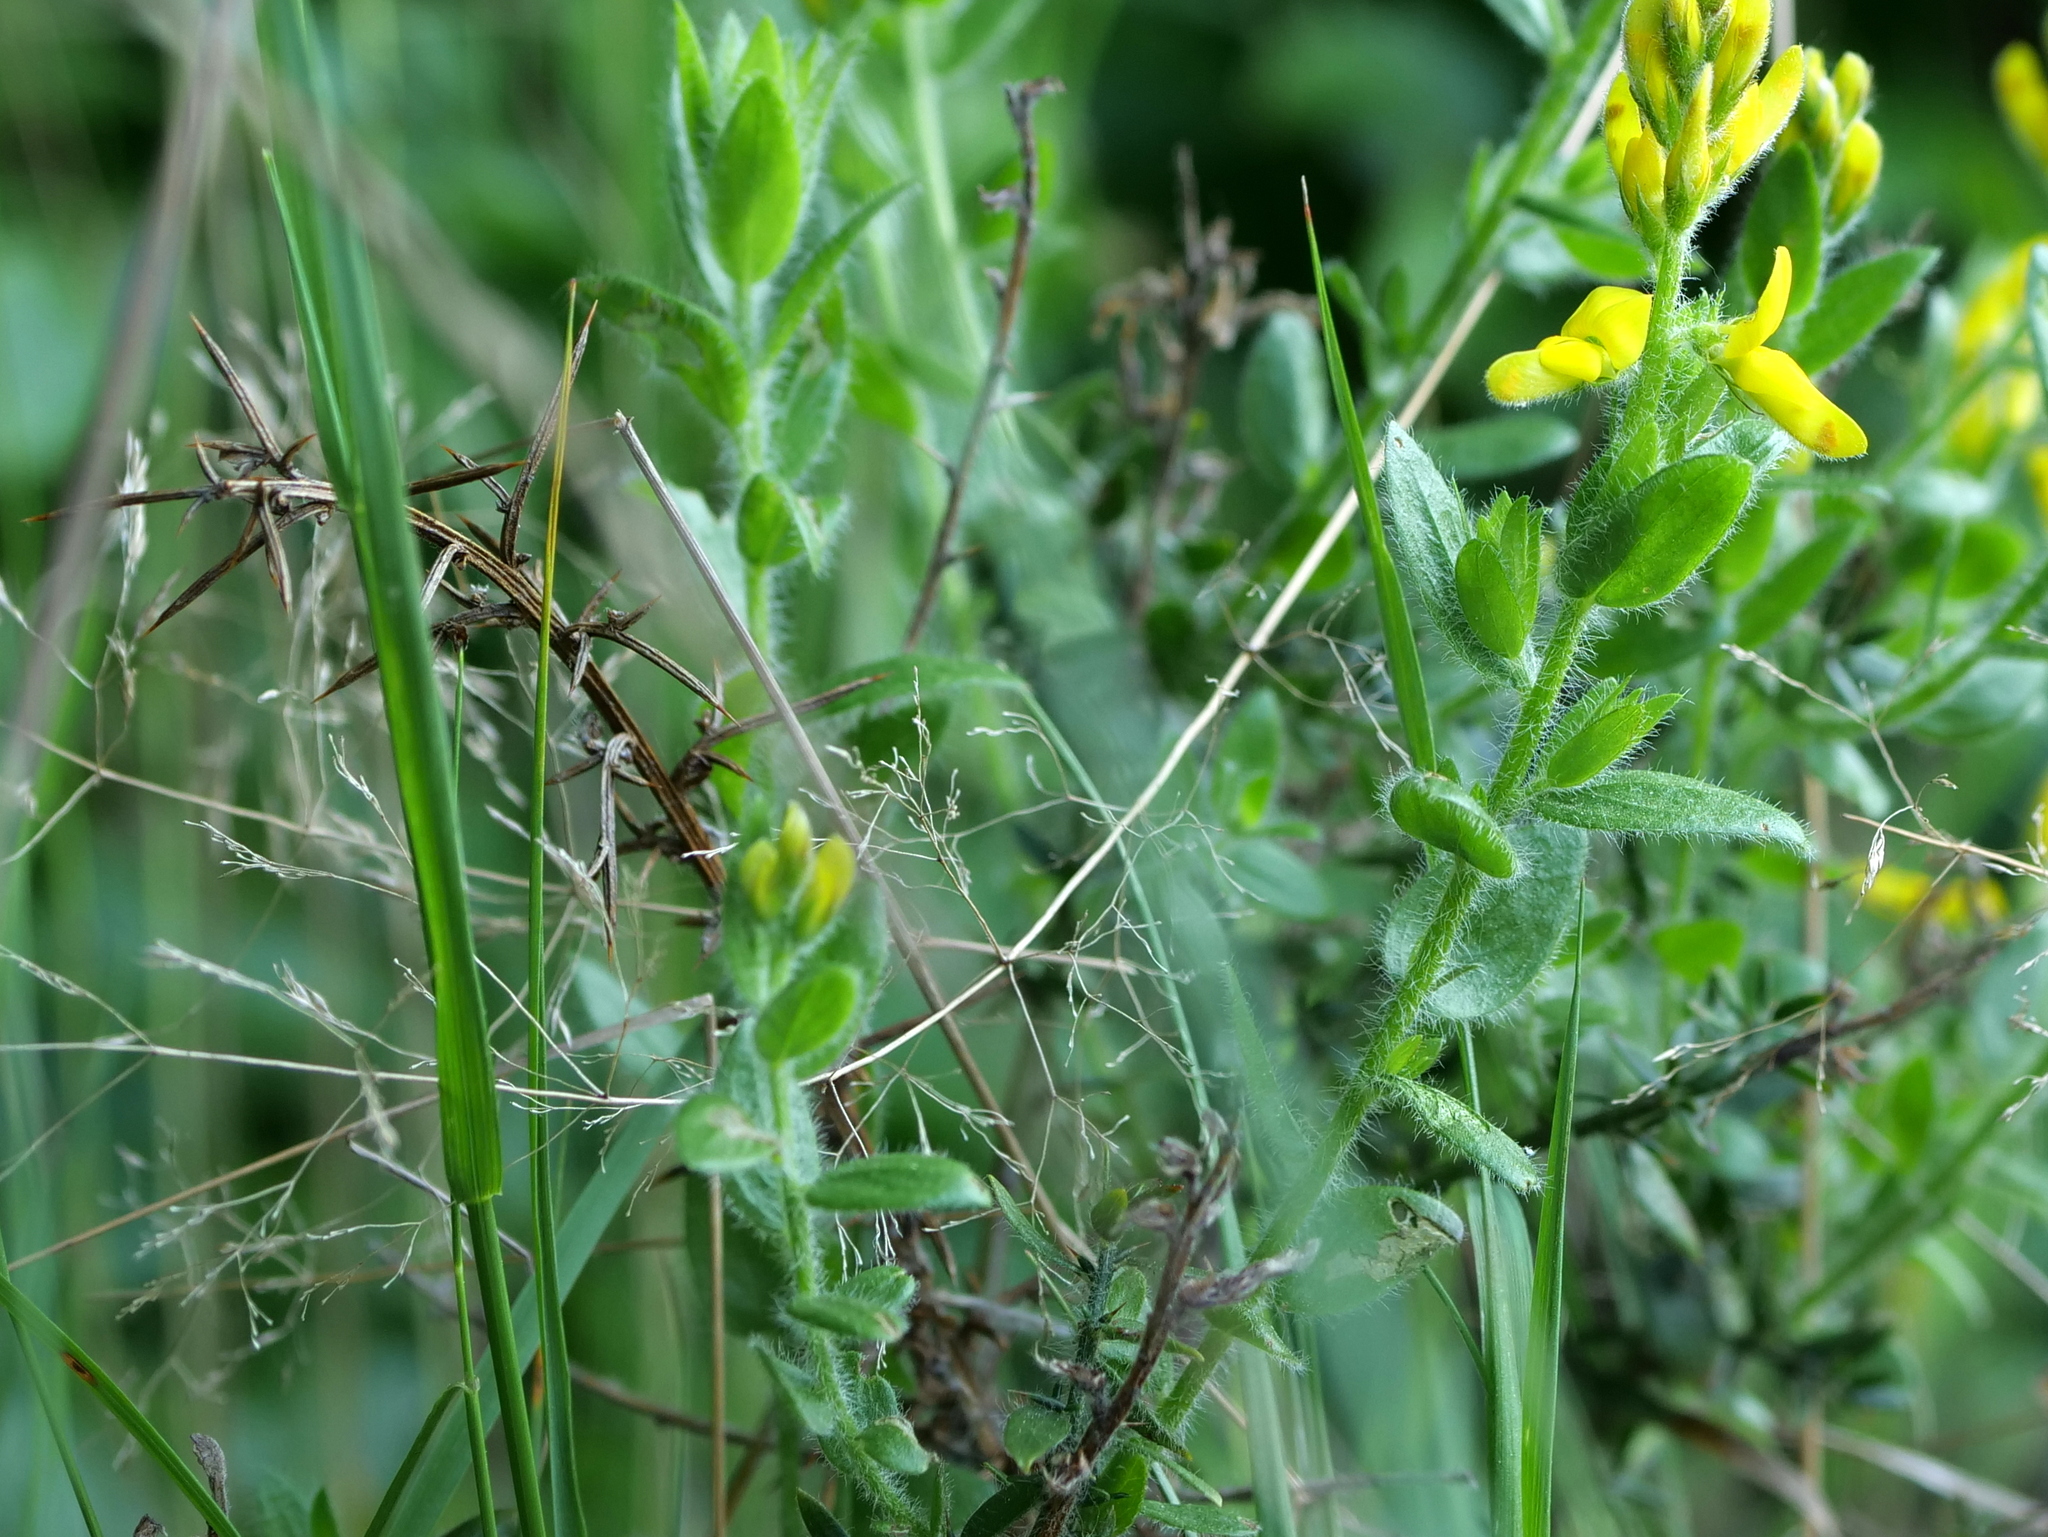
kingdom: Plantae
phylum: Tracheophyta
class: Magnoliopsida
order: Fabales
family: Fabaceae
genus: Genista
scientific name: Genista germanica
